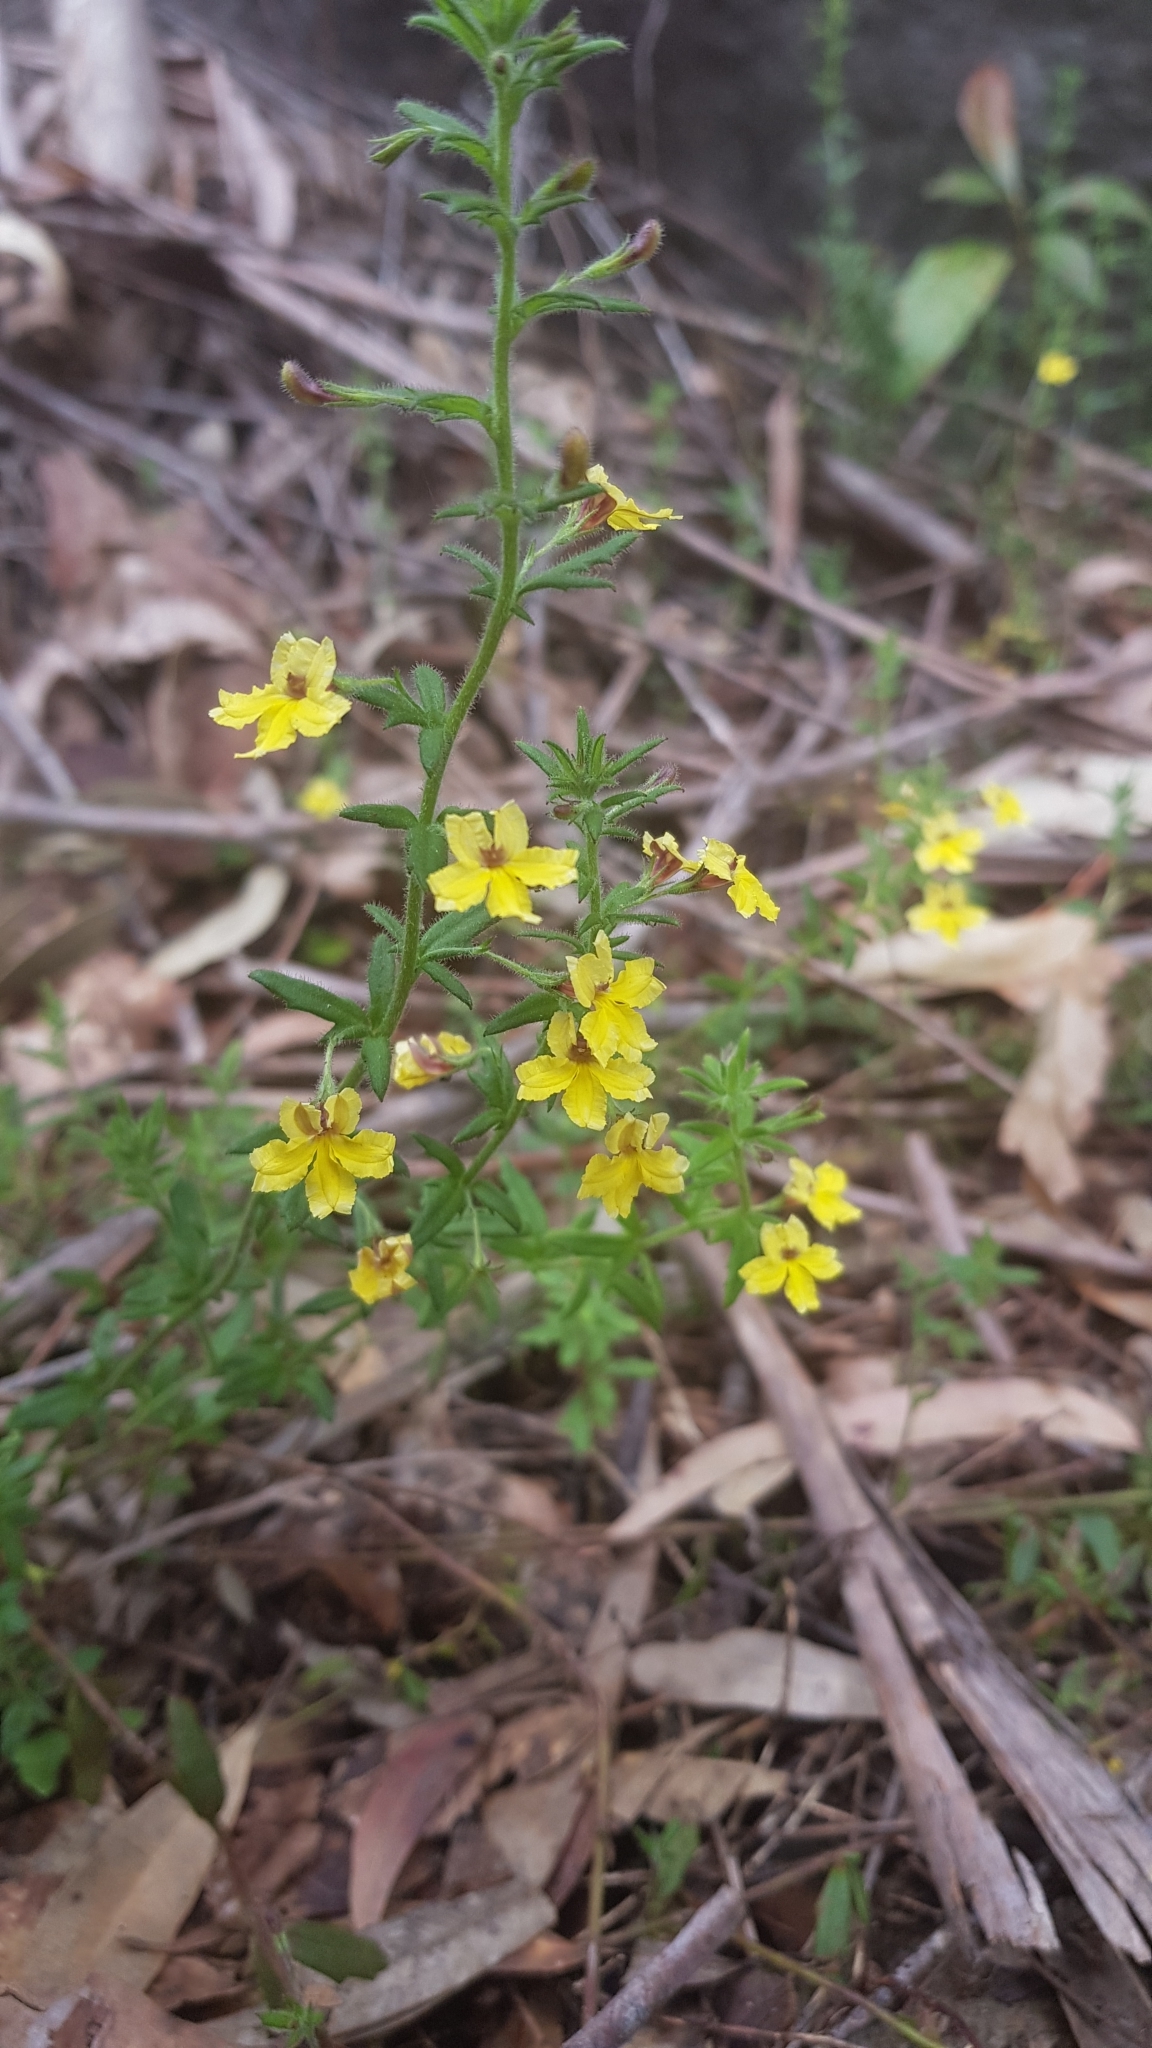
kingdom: Plantae
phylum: Tracheophyta
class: Magnoliopsida
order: Asterales
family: Goodeniaceae
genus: Goodenia
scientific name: Goodenia heterophylla
